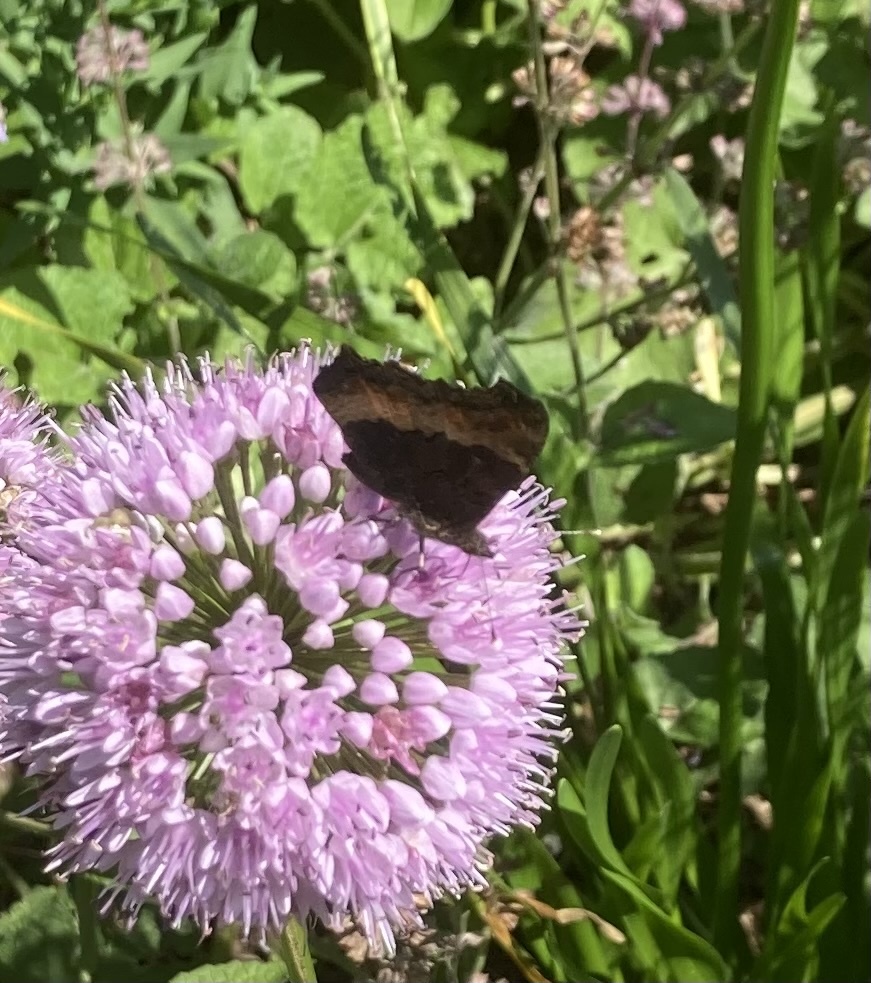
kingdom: Animalia
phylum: Arthropoda
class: Insecta
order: Lepidoptera
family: Nymphalidae
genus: Aglais
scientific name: Aglais milberti
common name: Milbert's tortoiseshell
